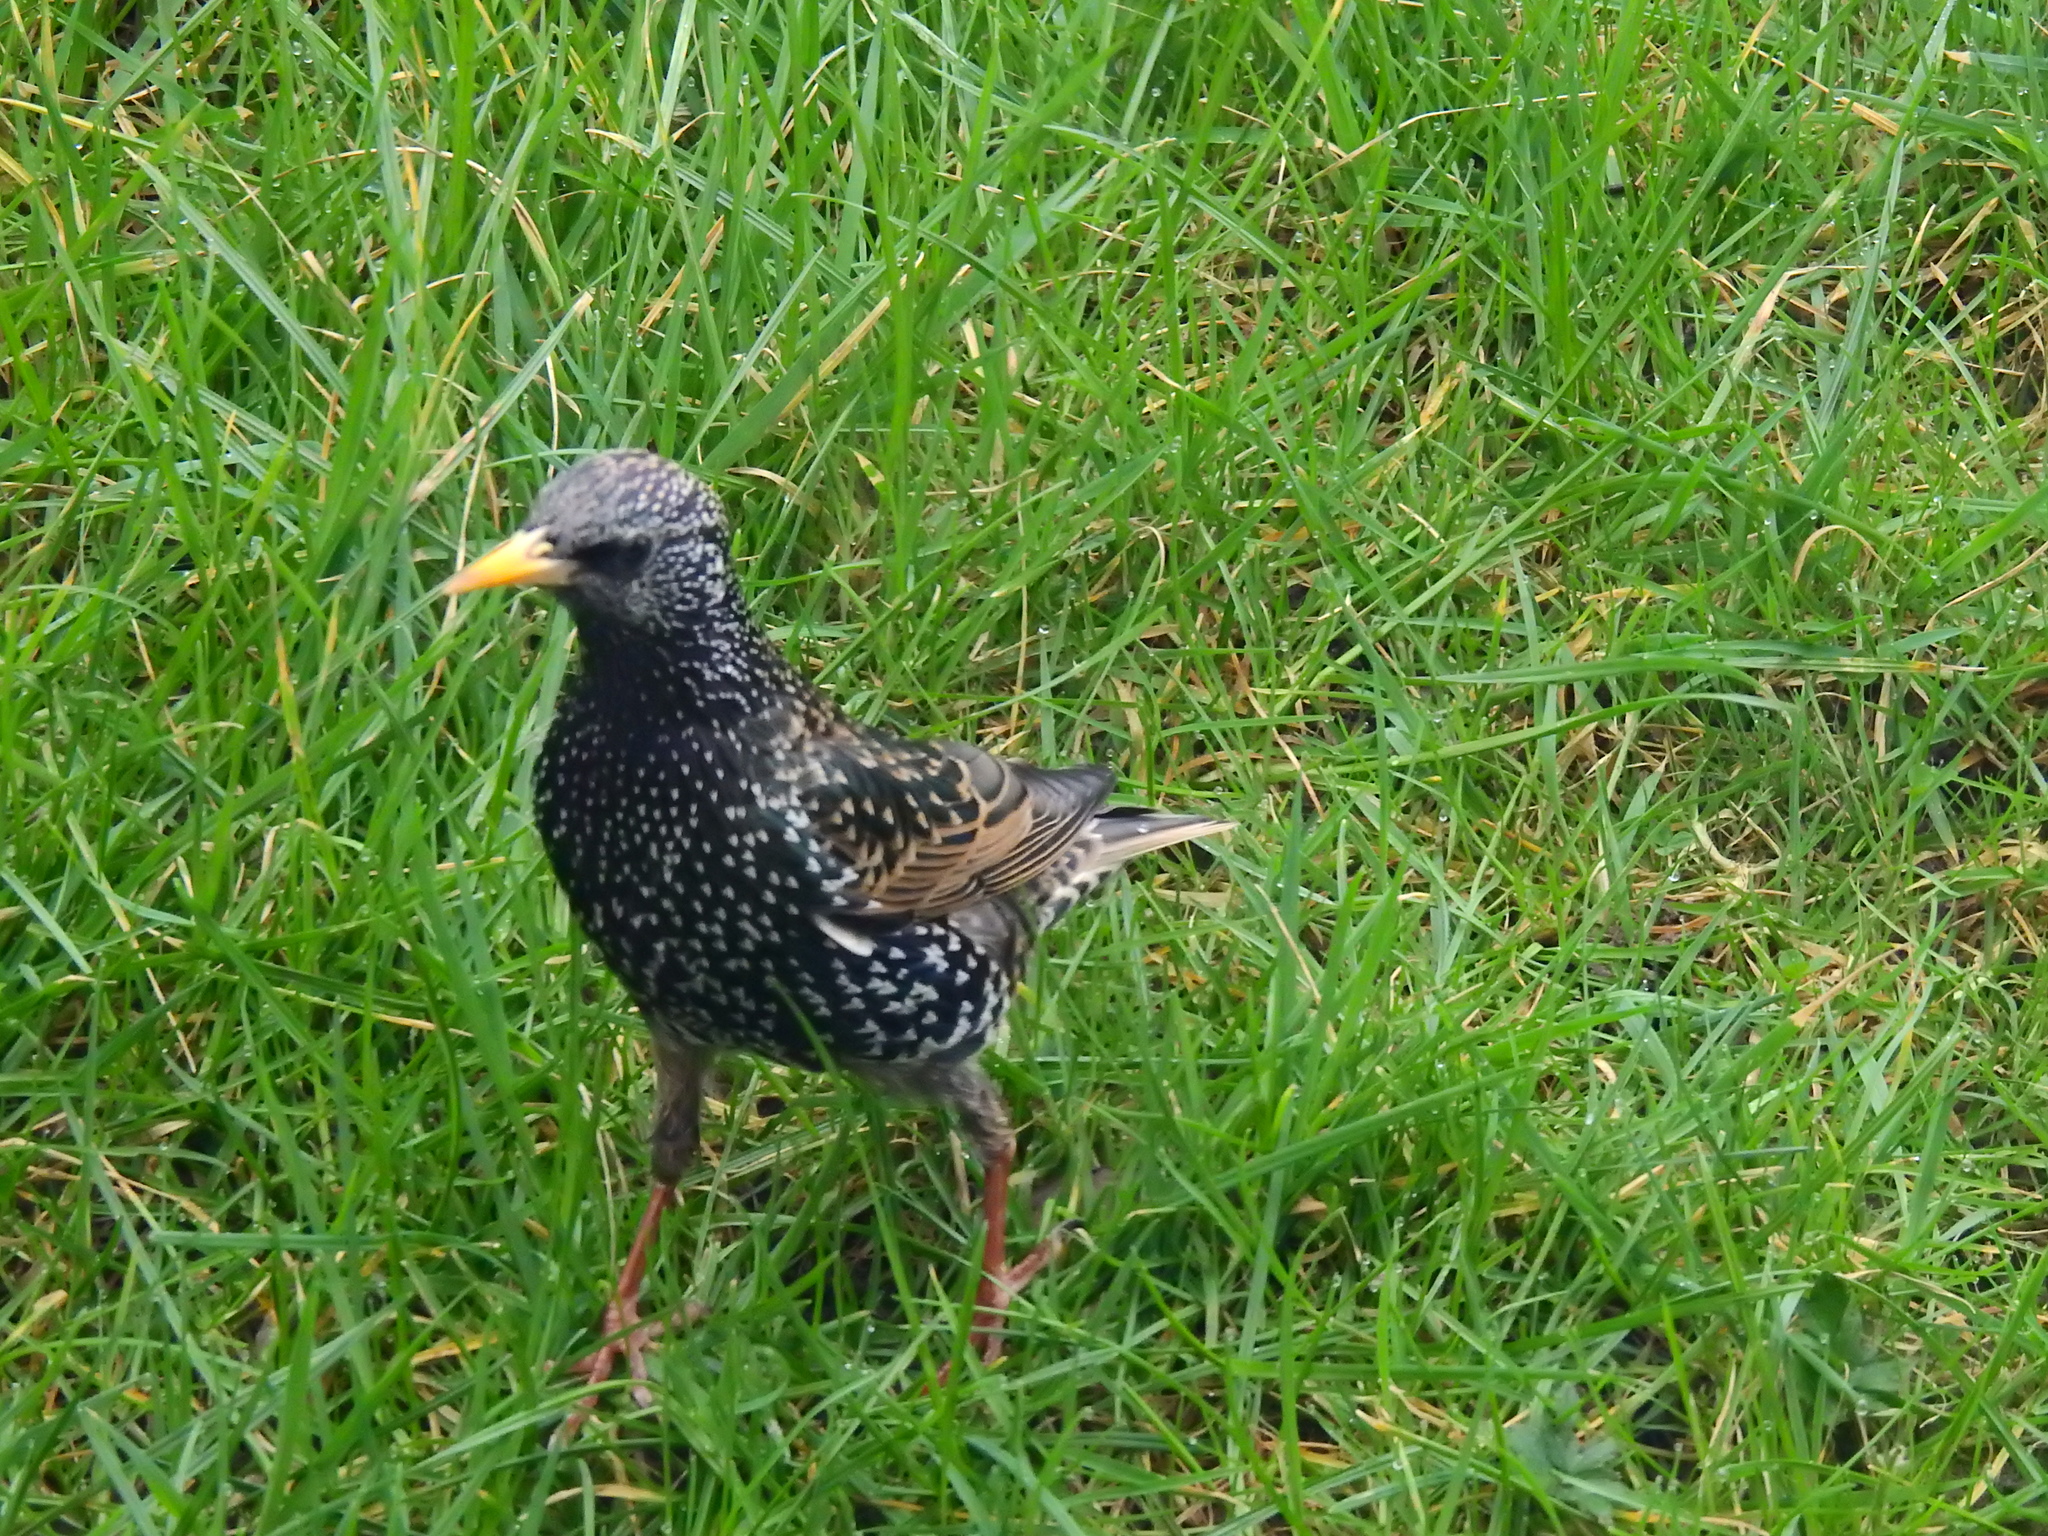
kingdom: Animalia
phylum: Chordata
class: Aves
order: Passeriformes
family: Sturnidae
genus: Sturnus
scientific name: Sturnus vulgaris
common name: Common starling
